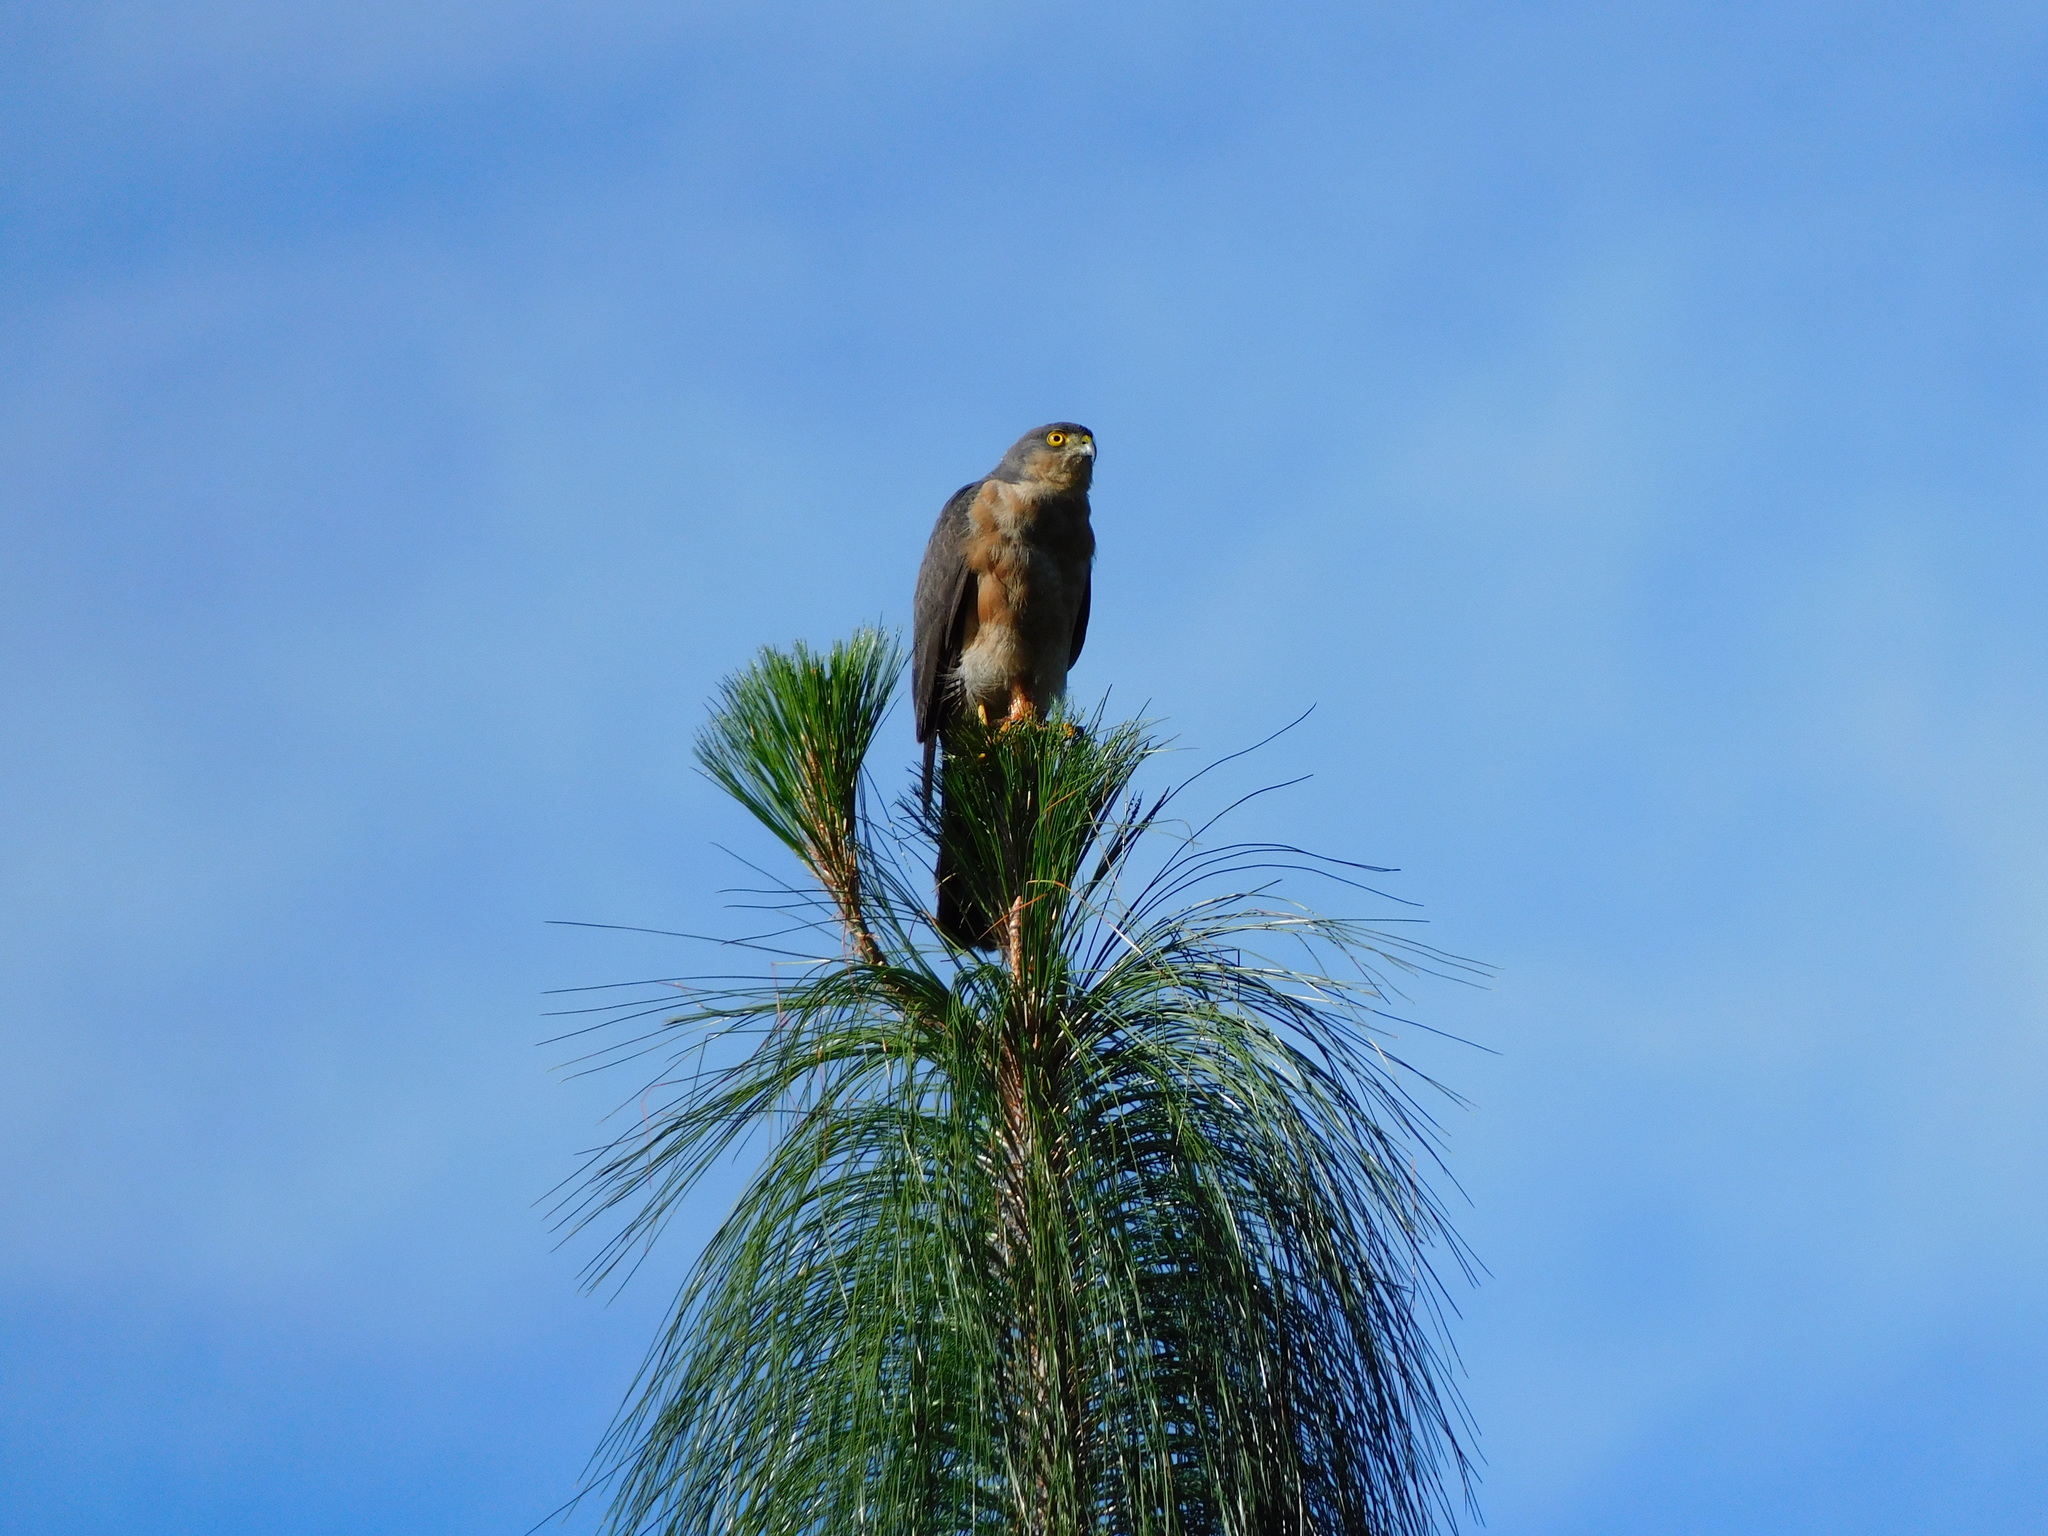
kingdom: Animalia
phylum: Chordata
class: Aves
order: Accipitriformes
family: Accipitridae
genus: Accipiter
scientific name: Accipiter striatus
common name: Sharp-shinned hawk
